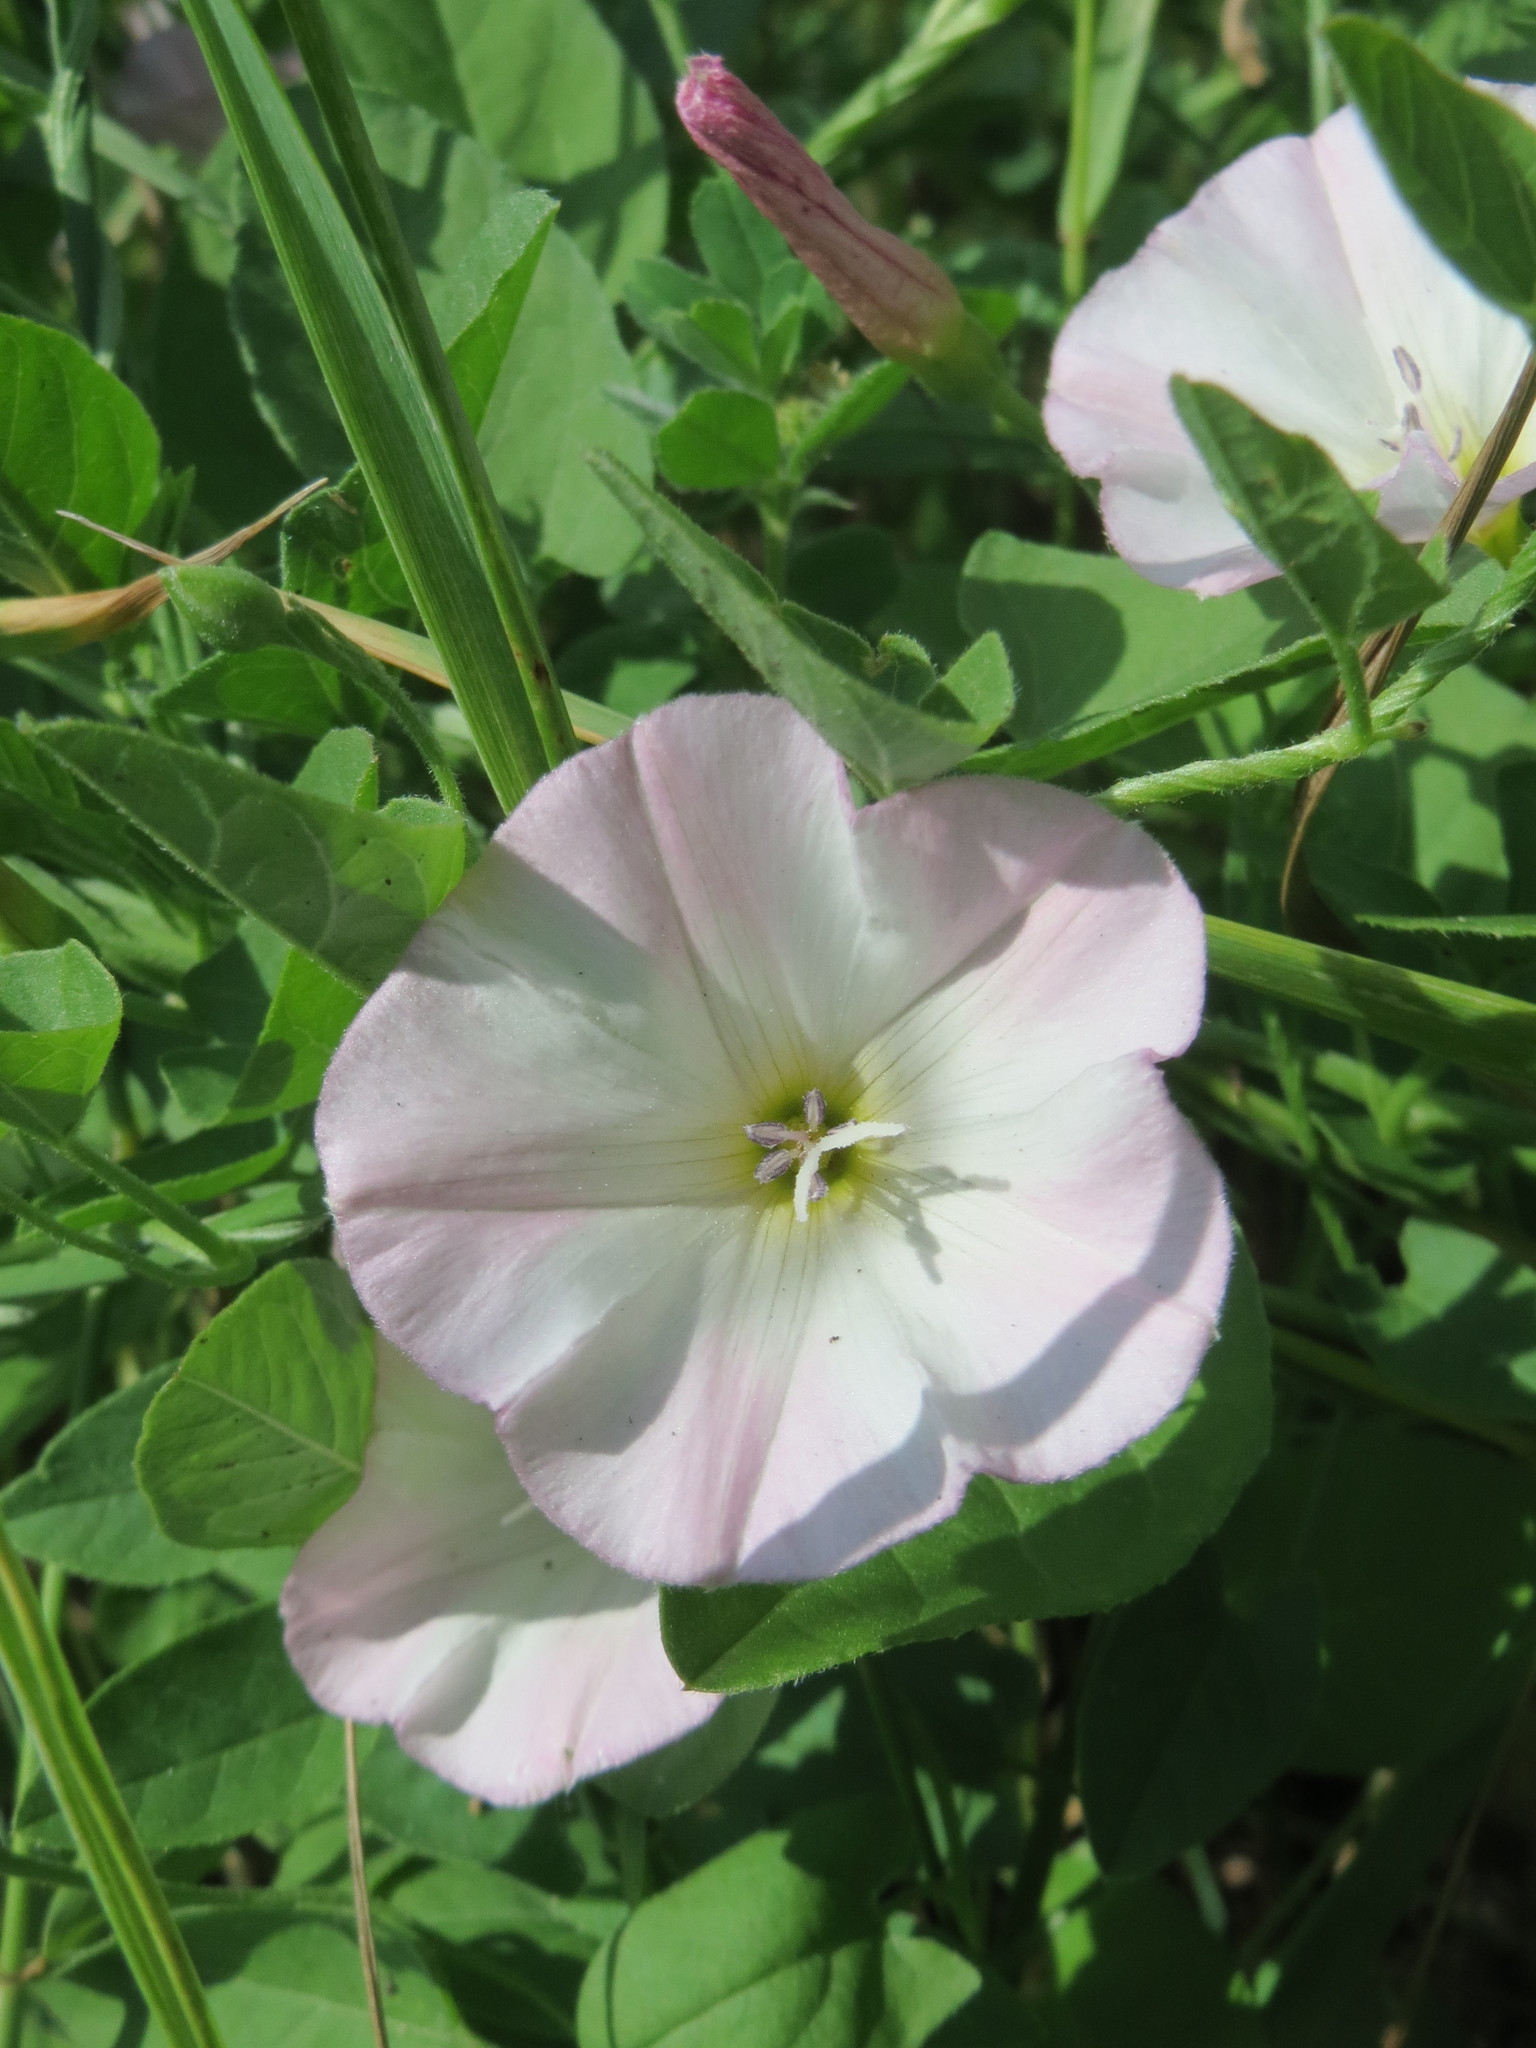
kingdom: Plantae
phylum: Tracheophyta
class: Magnoliopsida
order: Solanales
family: Convolvulaceae
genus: Convolvulus
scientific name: Convolvulus arvensis
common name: Field bindweed
